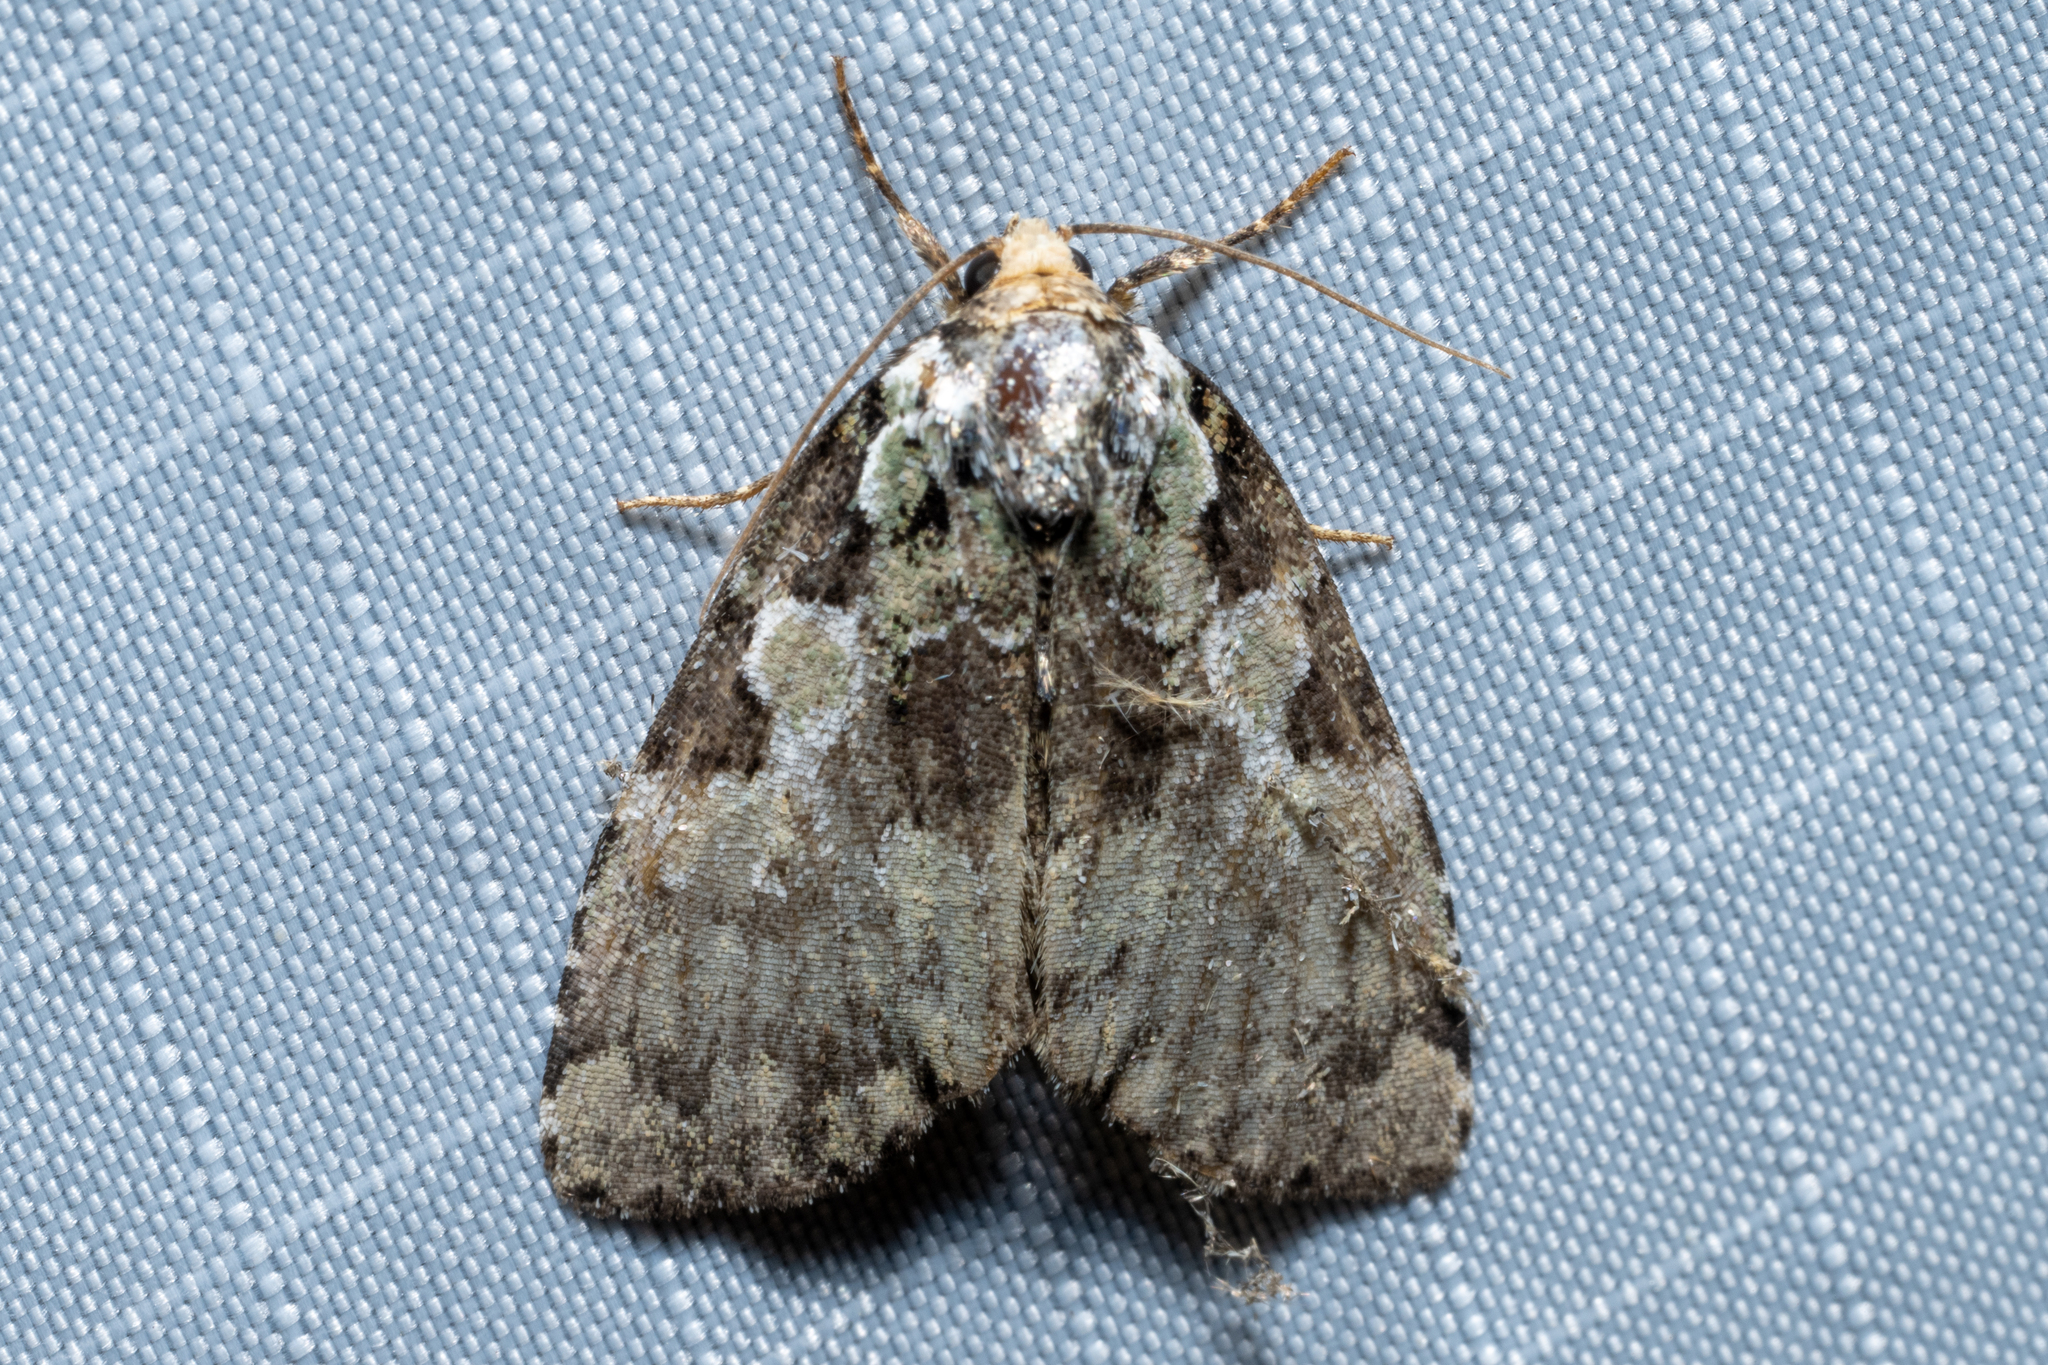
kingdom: Animalia
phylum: Arthropoda
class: Insecta
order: Lepidoptera
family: Noctuidae
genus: Leuconycta
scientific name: Leuconycta lepidula
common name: Marbled-green leuconycta moth
